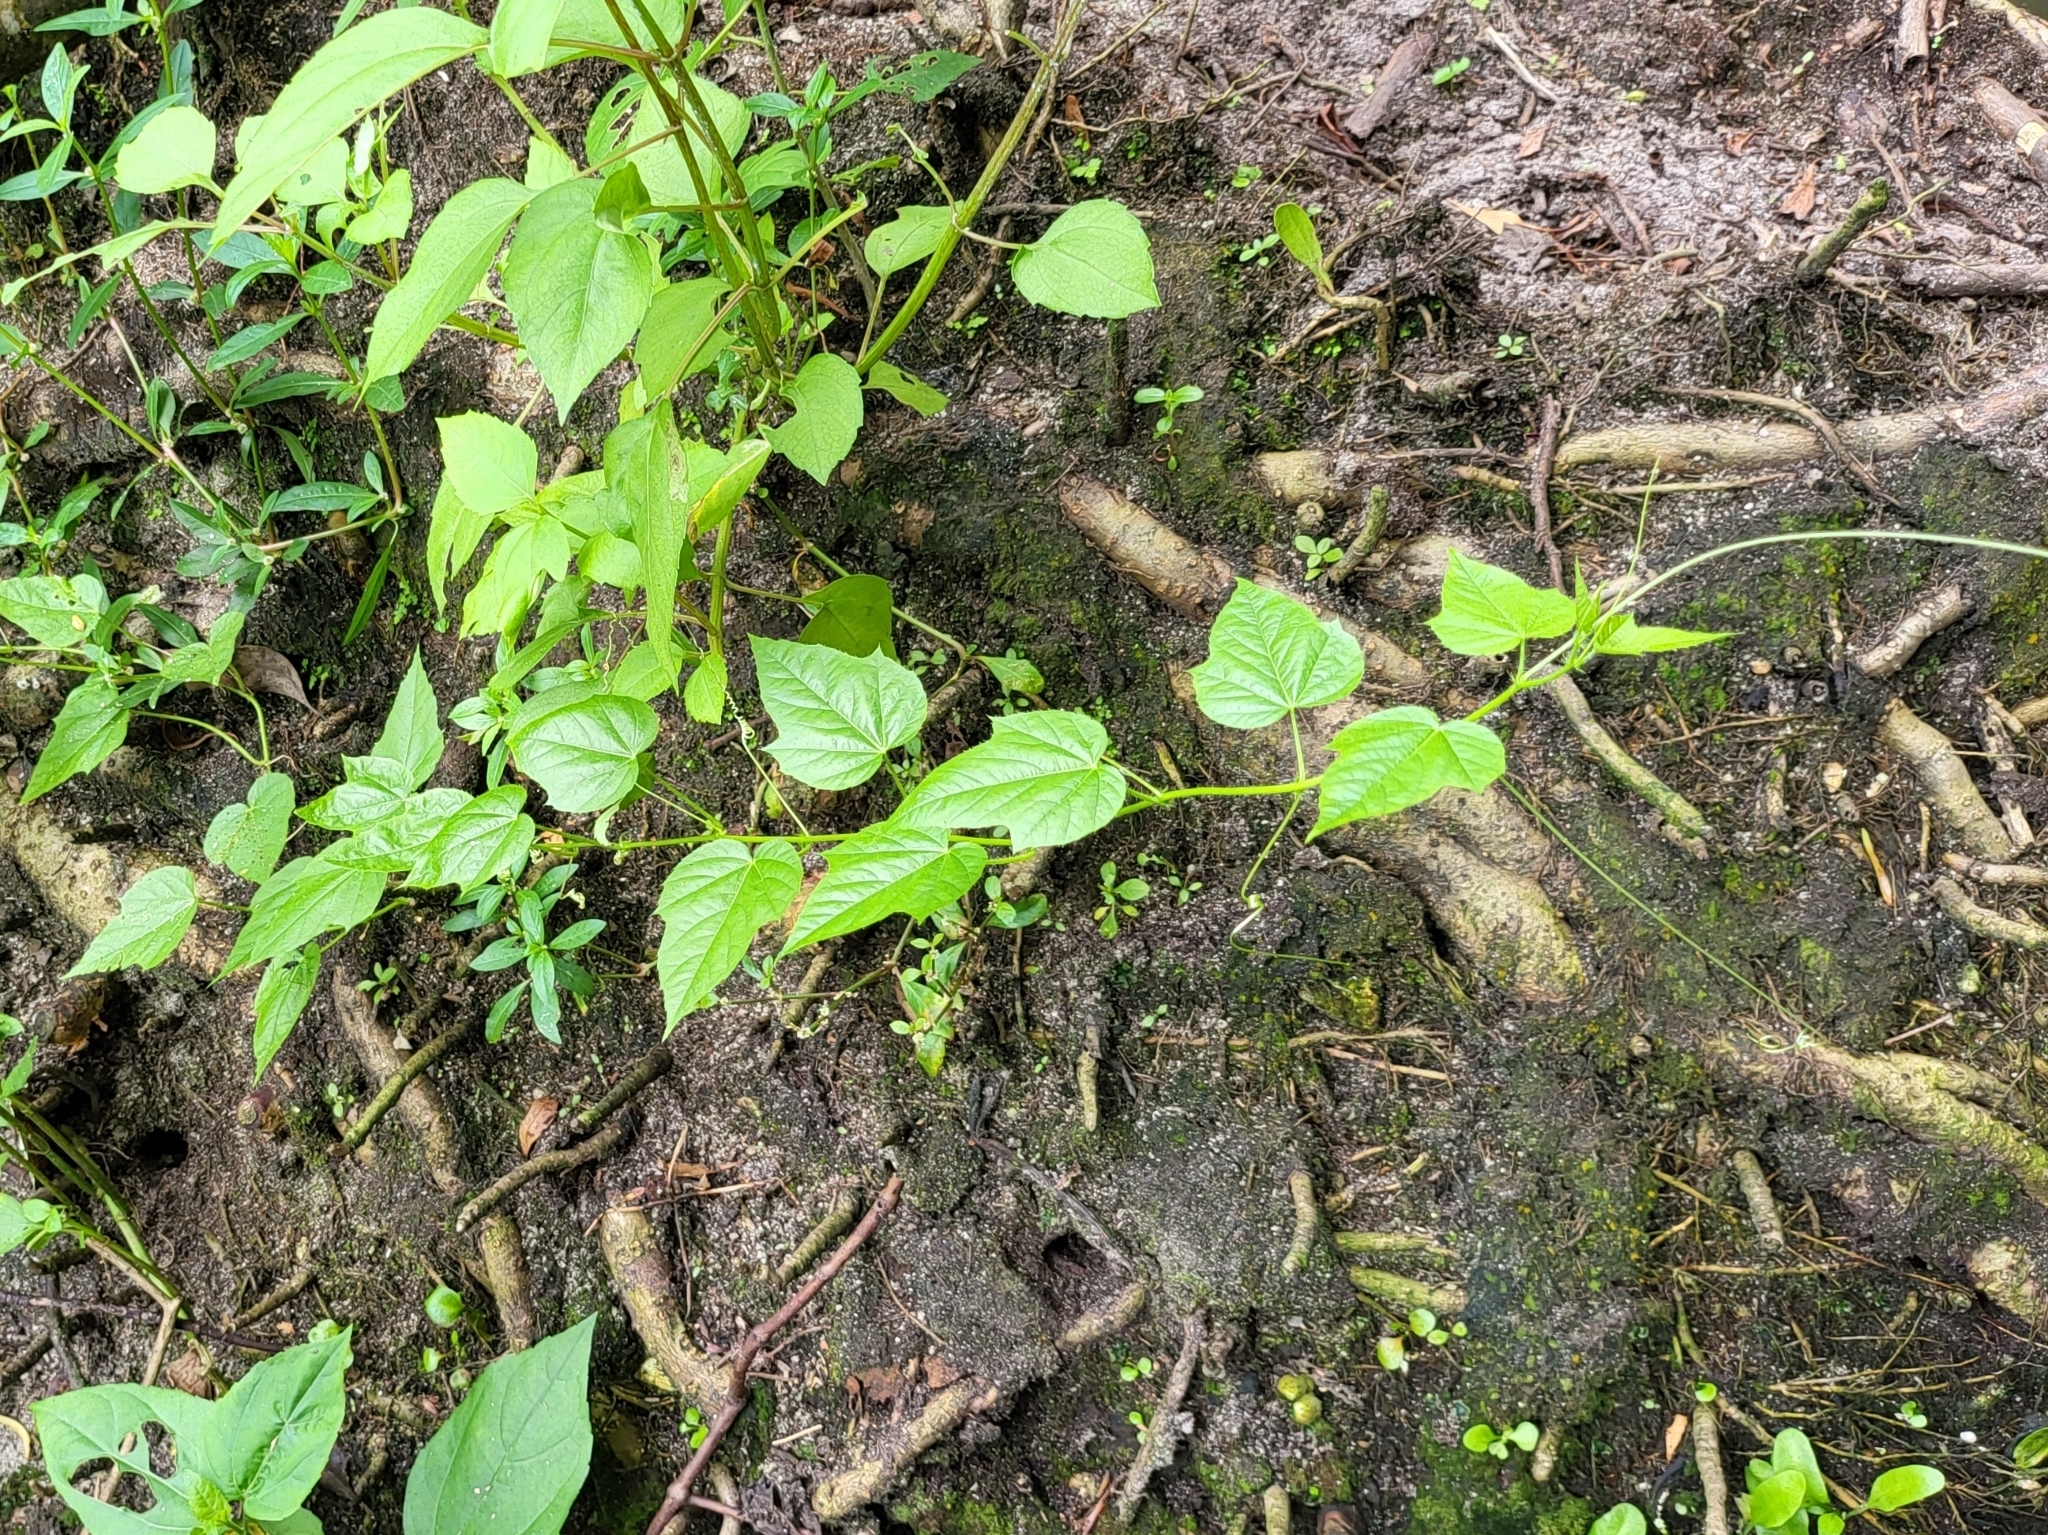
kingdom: Plantae
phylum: Tracheophyta
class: Magnoliopsida
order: Malpighiales
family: Passifloraceae
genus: Passiflora
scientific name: Passiflora foetida
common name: Fetid passionflower
